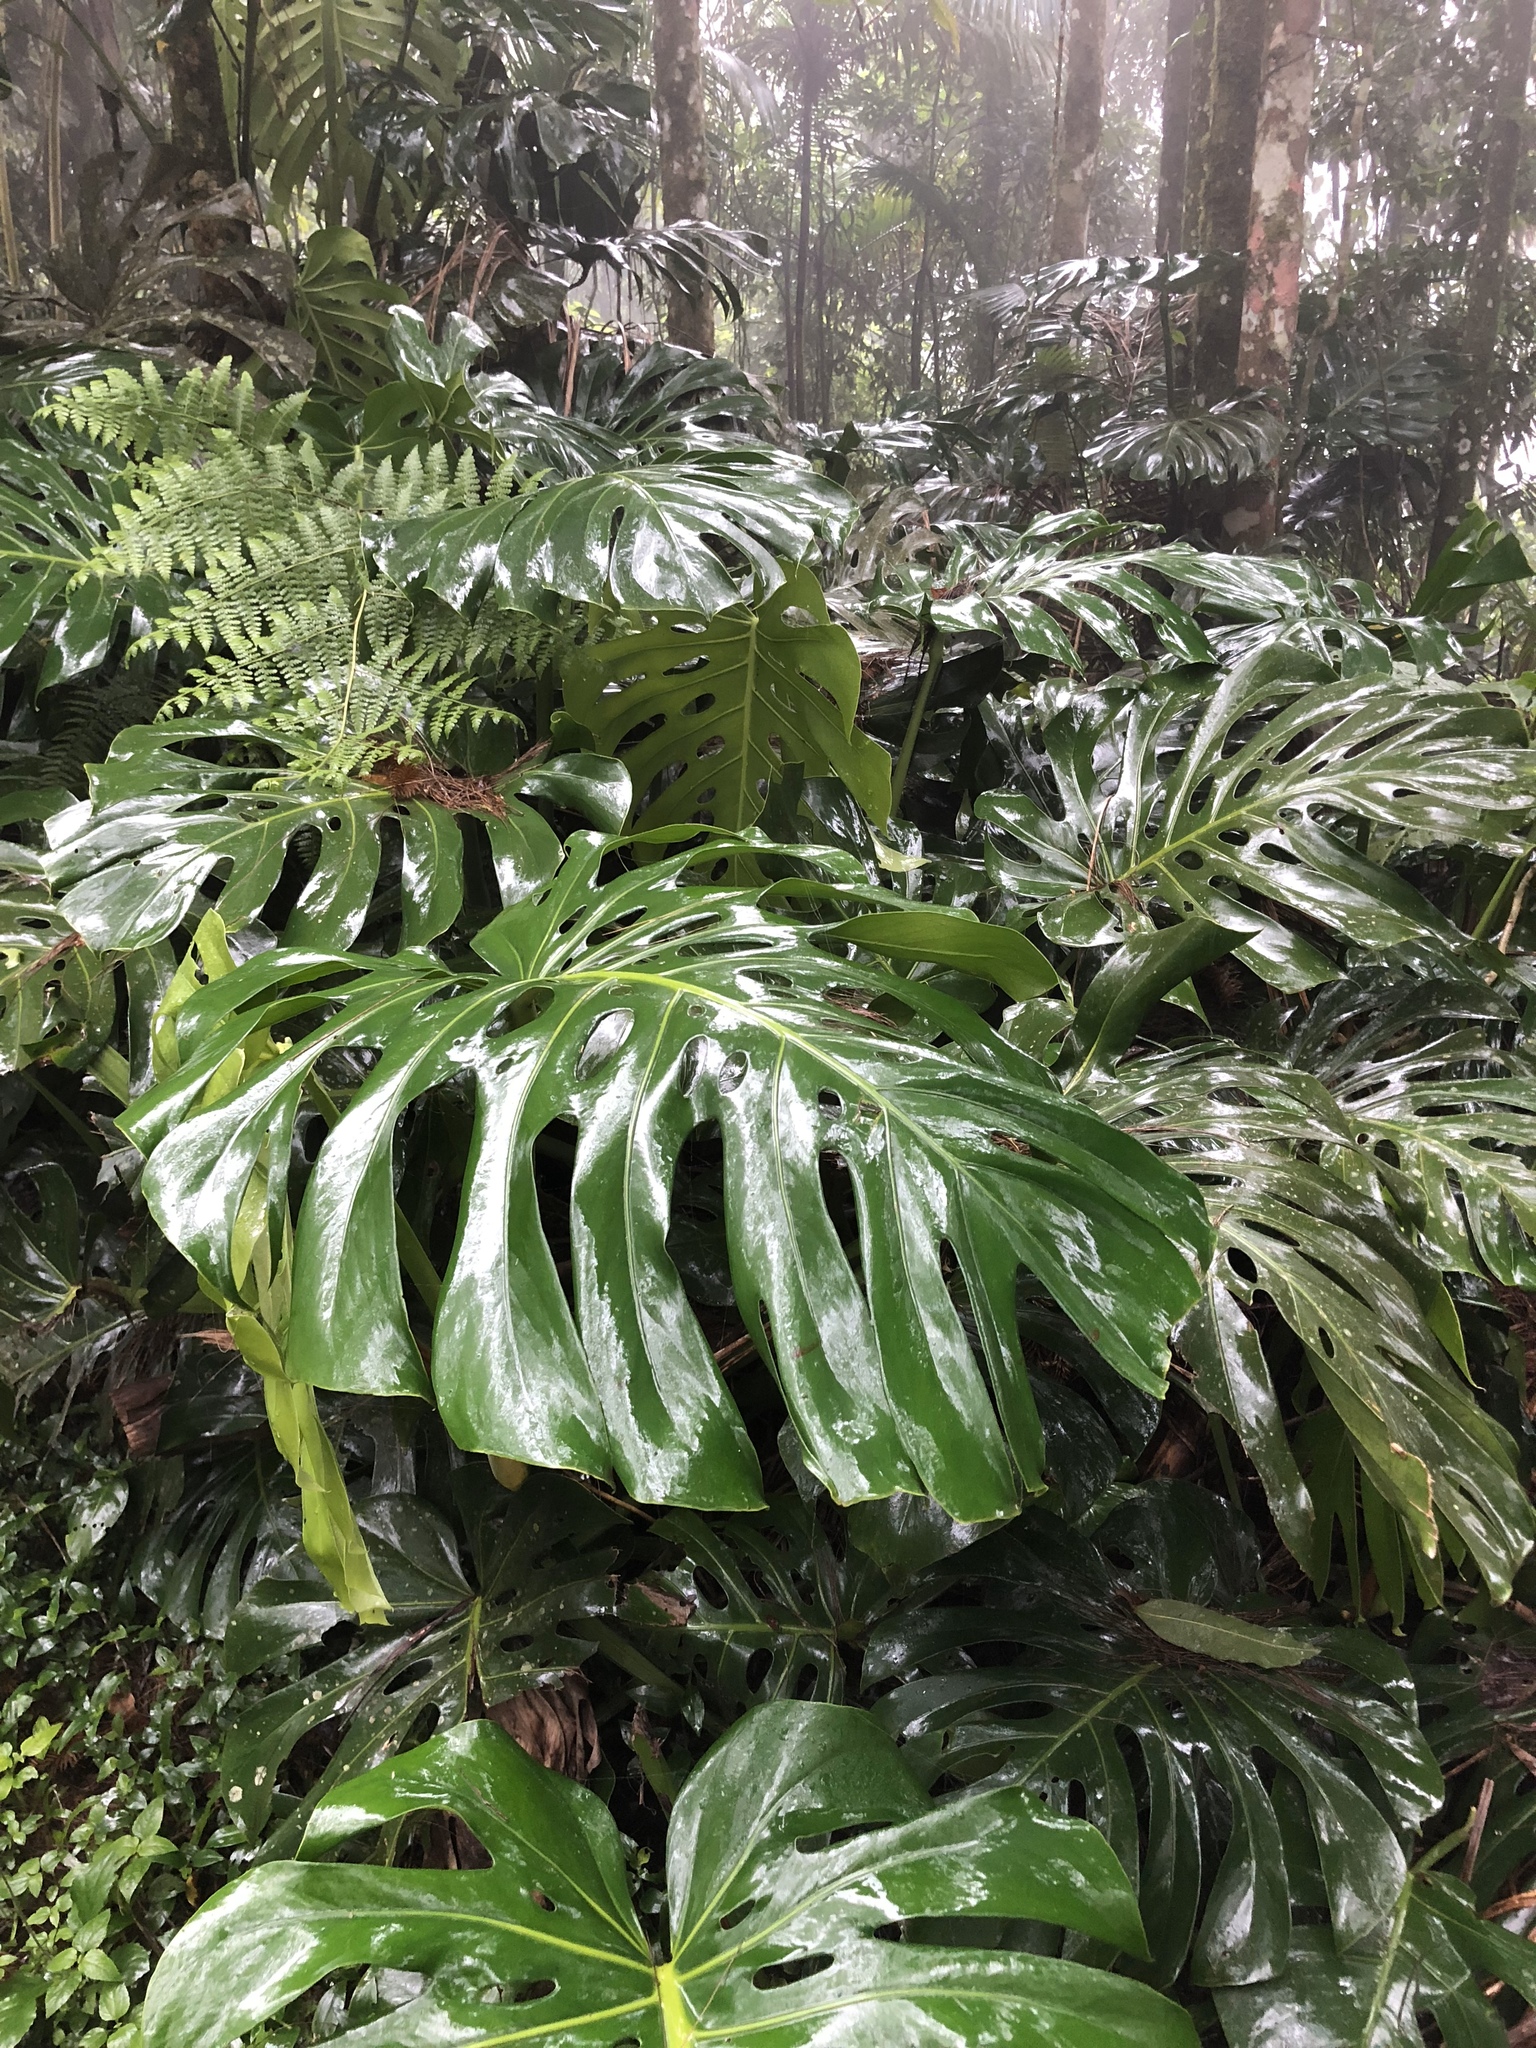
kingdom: Plantae
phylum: Tracheophyta
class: Liliopsida
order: Alismatales
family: Araceae
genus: Monstera
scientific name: Monstera deliciosa
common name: Cut-leaf-philodendron
